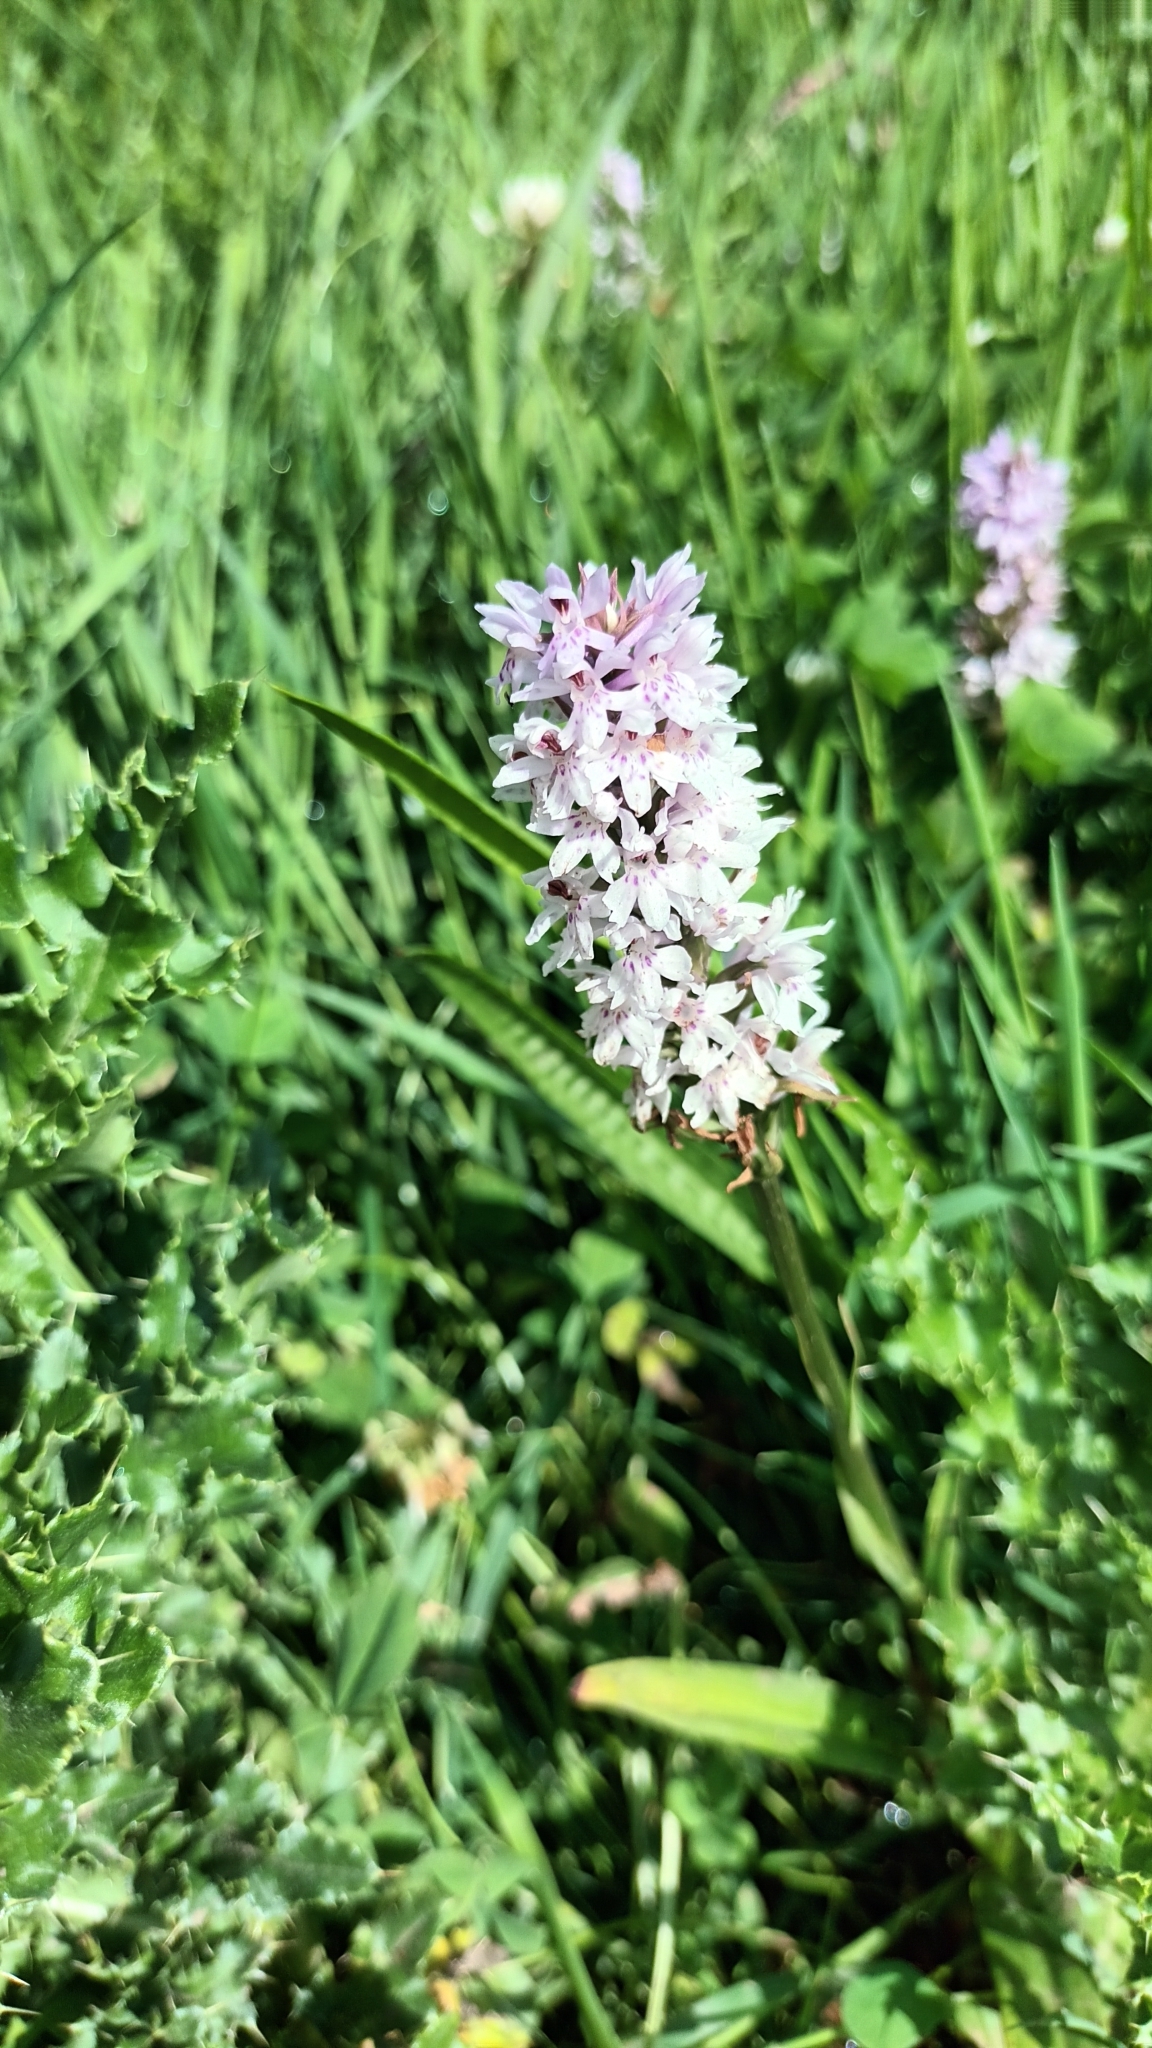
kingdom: Plantae
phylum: Tracheophyta
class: Liliopsida
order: Asparagales
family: Orchidaceae
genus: Dactylorhiza
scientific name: Dactylorhiza maculata
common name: Heath spotted-orchid
